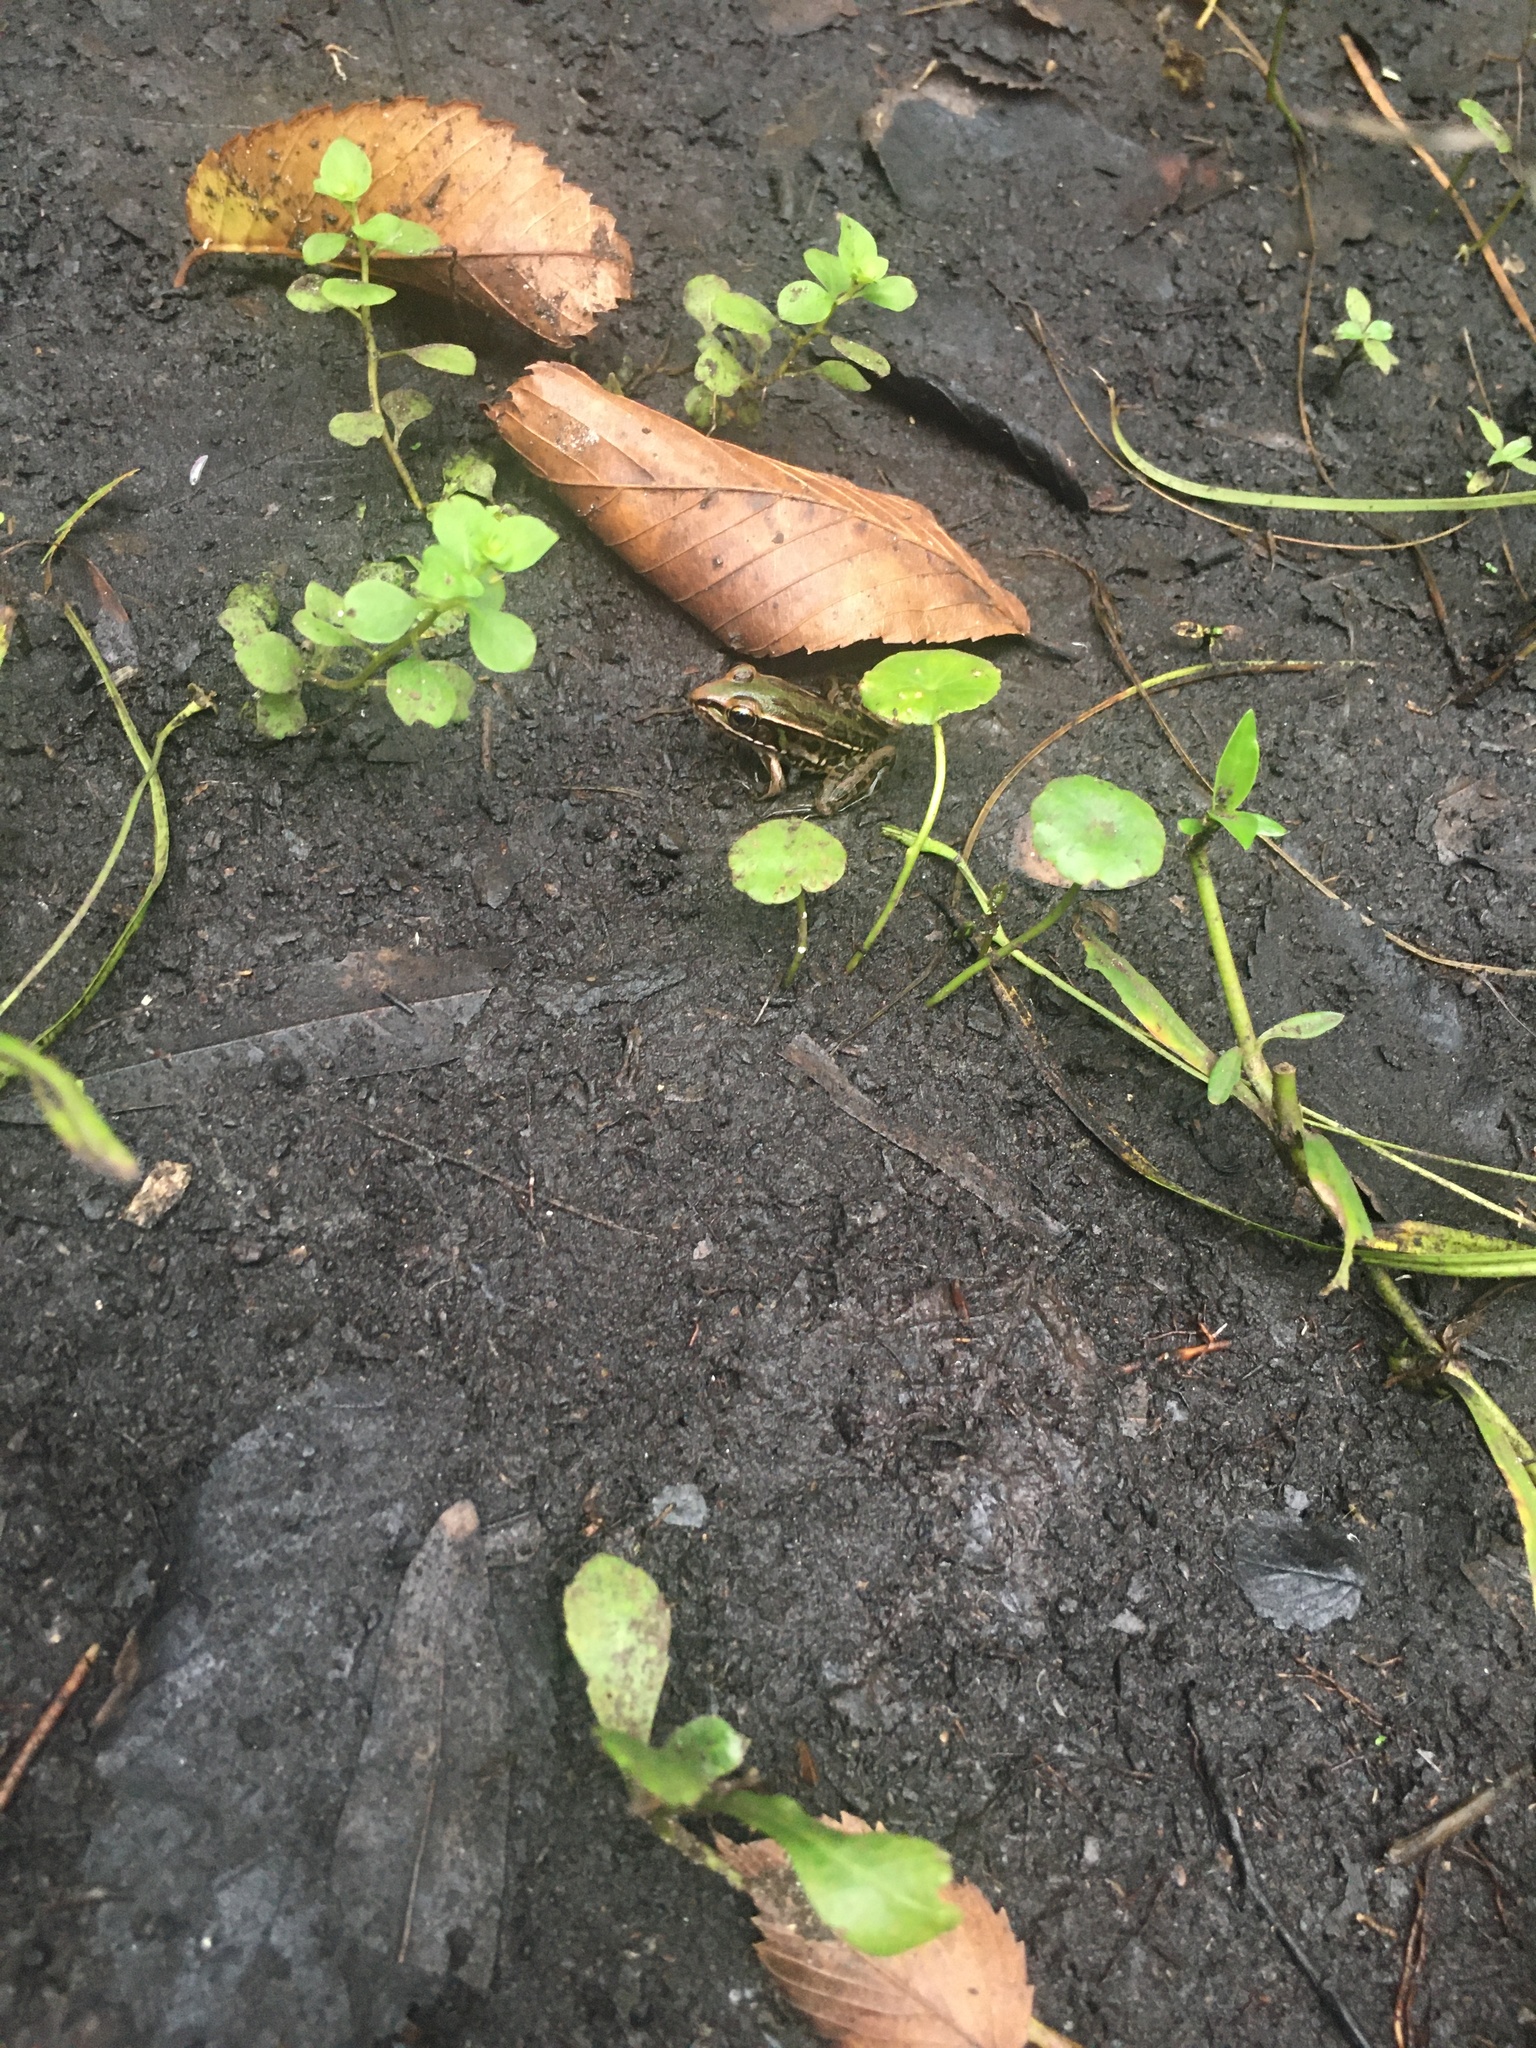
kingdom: Animalia
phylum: Chordata
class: Amphibia
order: Anura
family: Ranidae
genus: Lithobates
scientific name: Lithobates sphenocephalus
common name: Southern leopard frog
